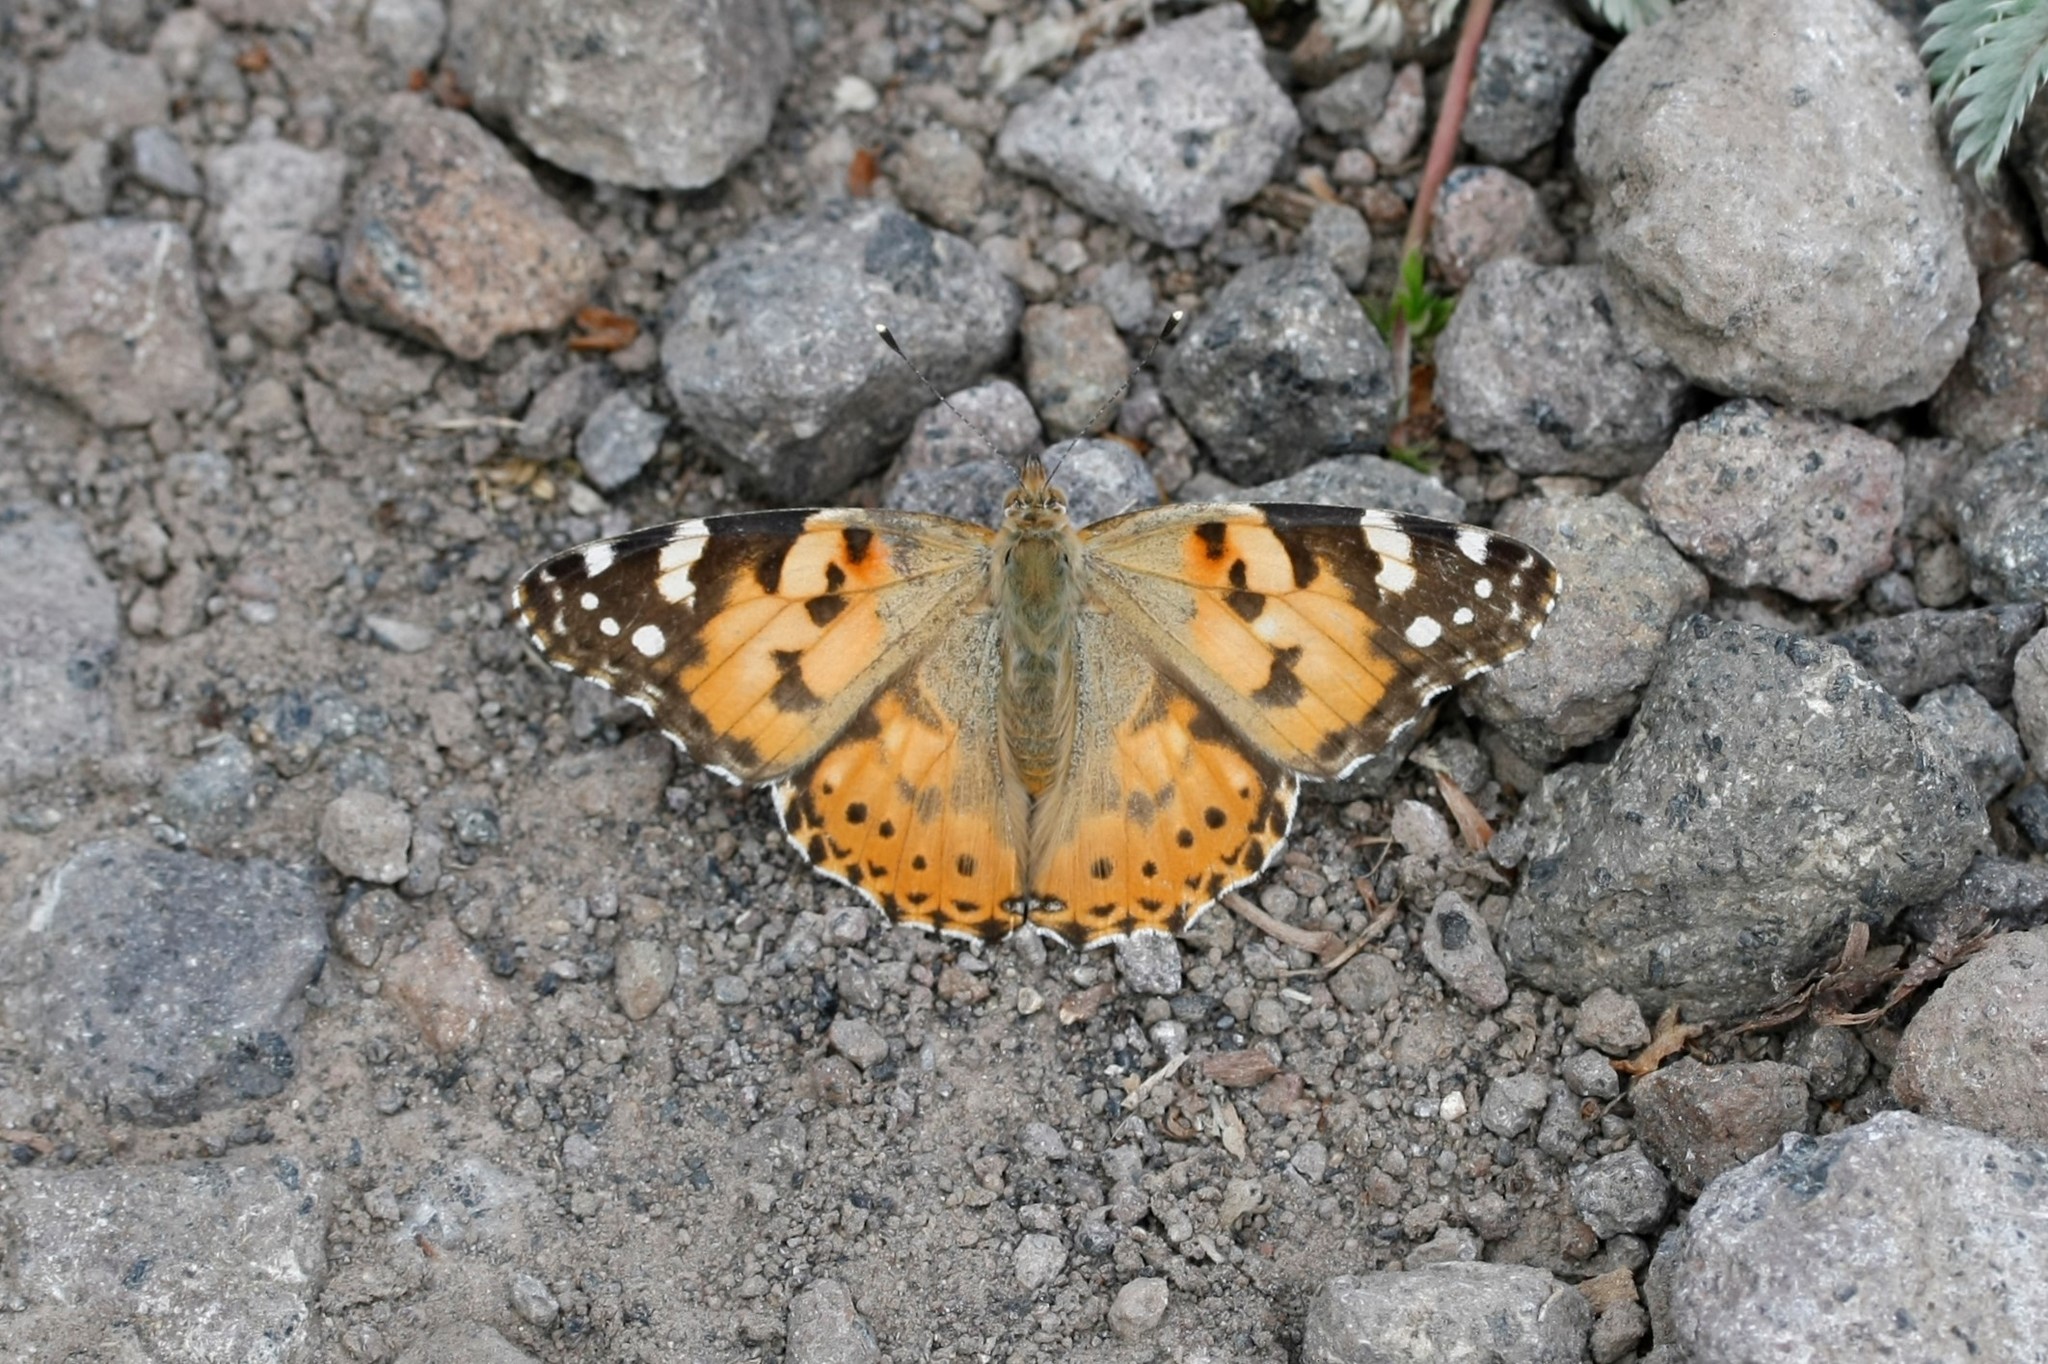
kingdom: Animalia
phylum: Arthropoda
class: Insecta
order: Lepidoptera
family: Nymphalidae
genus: Vanessa
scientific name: Vanessa cardui
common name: Painted lady
